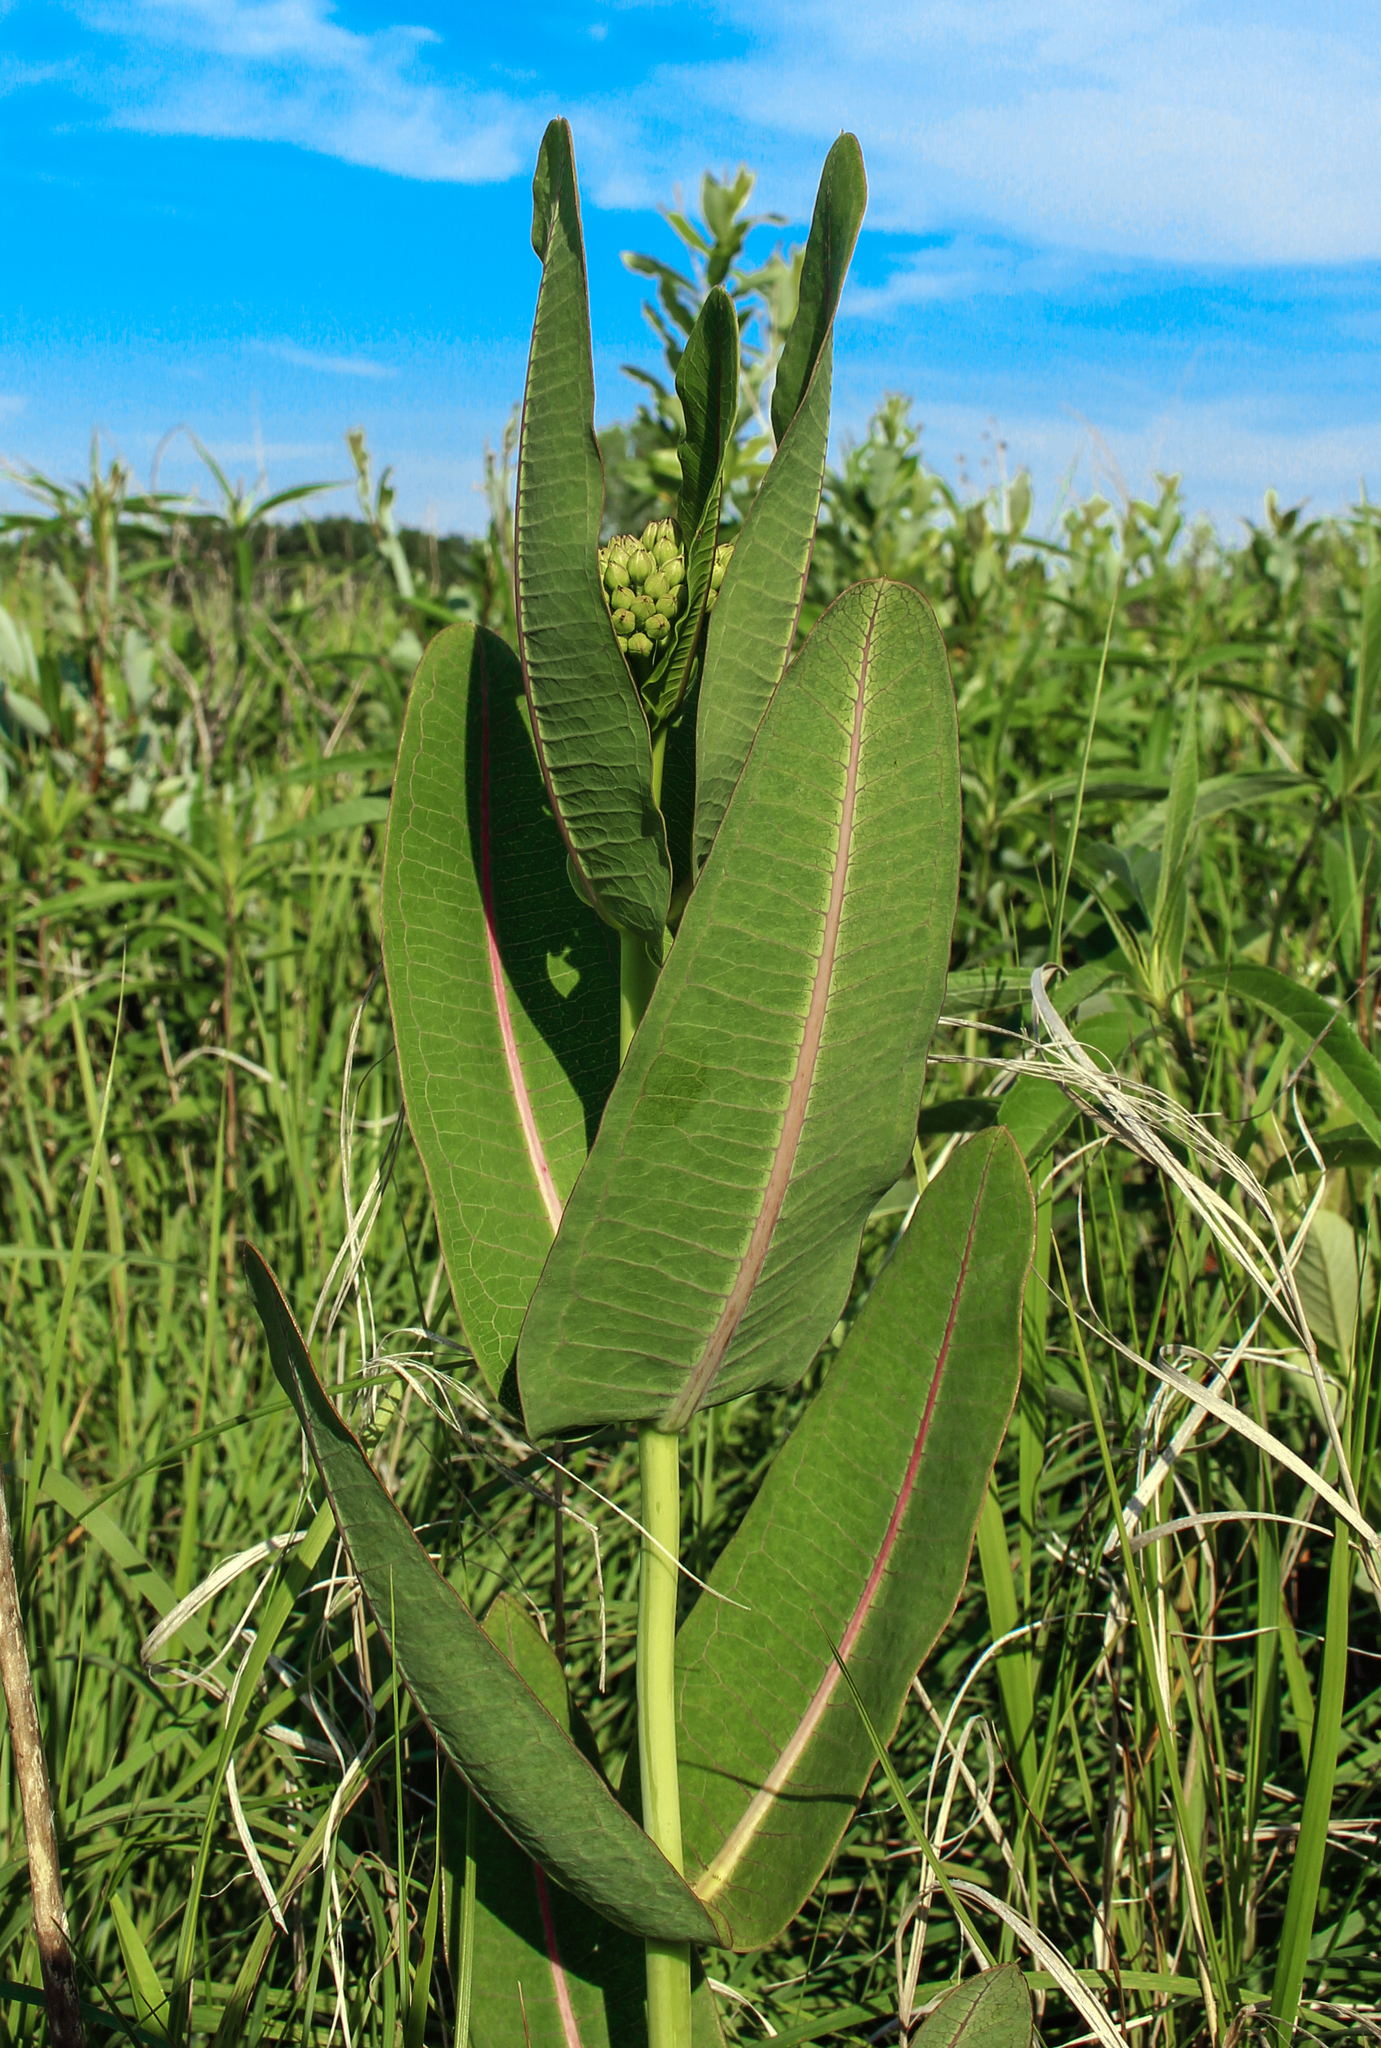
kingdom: Plantae
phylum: Tracheophyta
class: Magnoliopsida
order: Gentianales
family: Apocynaceae
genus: Asclepias
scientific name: Asclepias sullivantii
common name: Prairie milkweed
